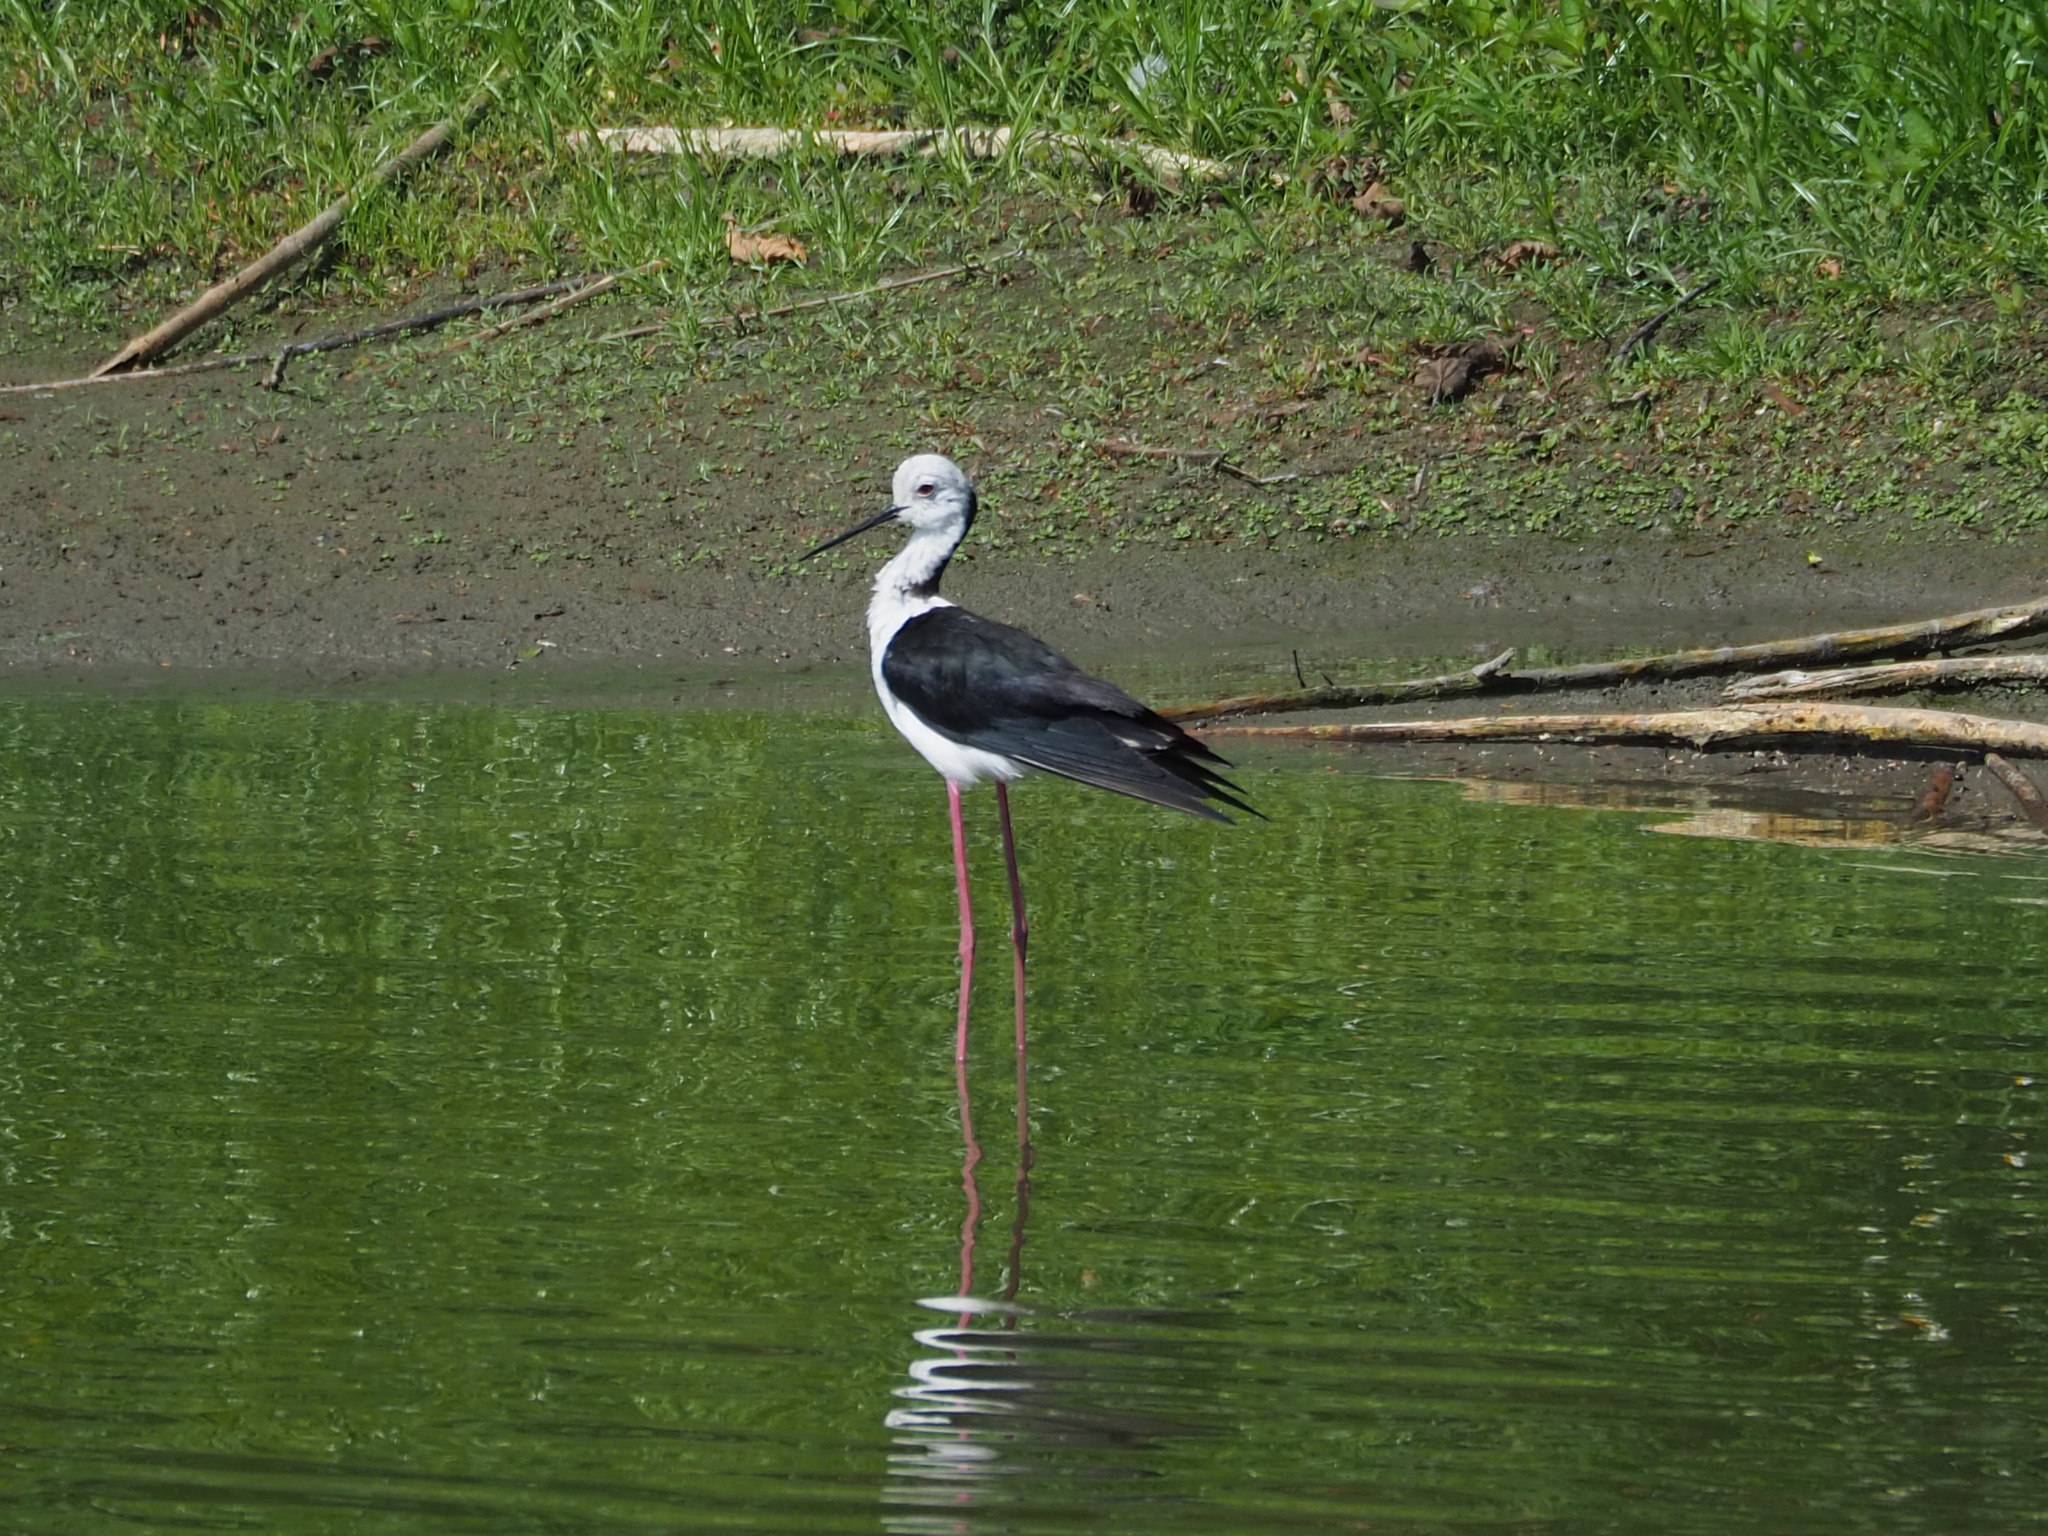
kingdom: Animalia
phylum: Chordata
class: Aves
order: Charadriiformes
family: Recurvirostridae
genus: Himantopus
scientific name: Himantopus himantopus
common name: Black-winged stilt
